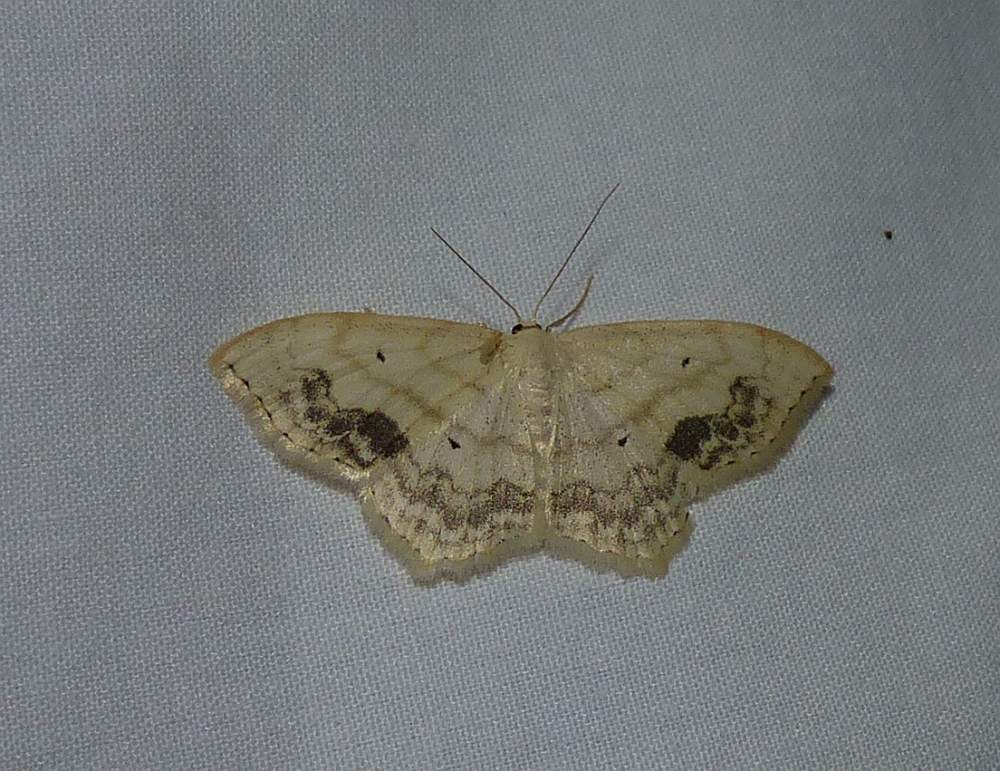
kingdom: Animalia
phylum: Arthropoda
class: Insecta
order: Lepidoptera
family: Geometridae
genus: Scopula
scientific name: Scopula limboundata
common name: Large lace border
